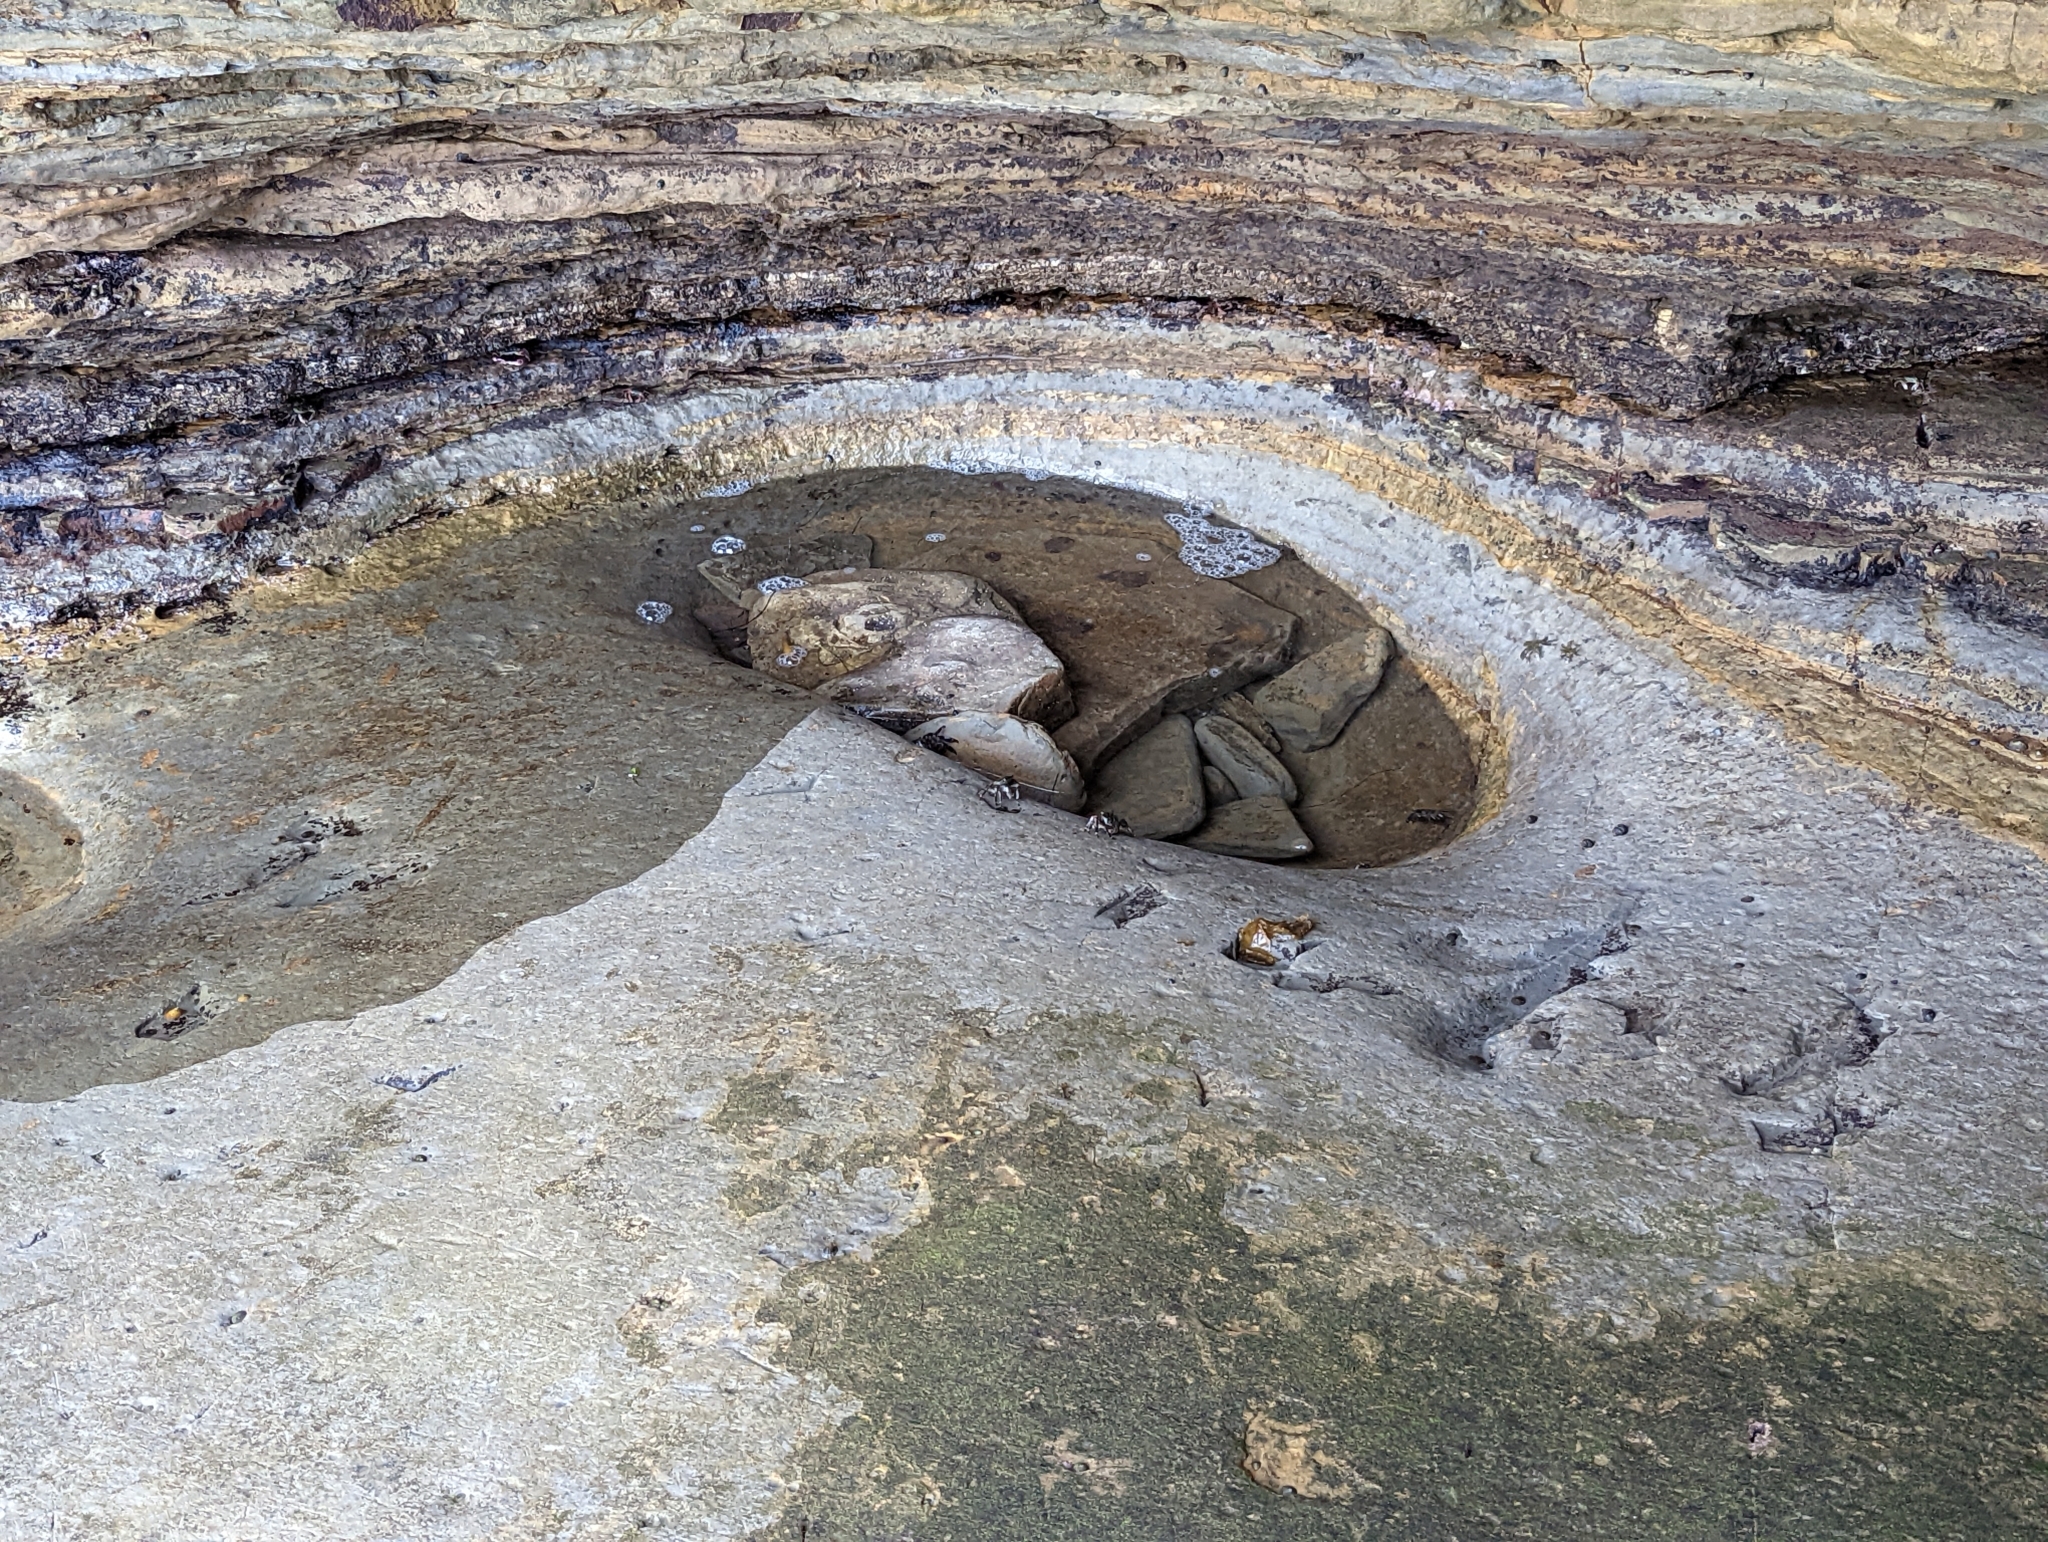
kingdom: Animalia
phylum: Arthropoda
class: Malacostraca
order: Decapoda
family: Grapsidae
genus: Pachygrapsus
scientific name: Pachygrapsus crassipes
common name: Striped shore crab
